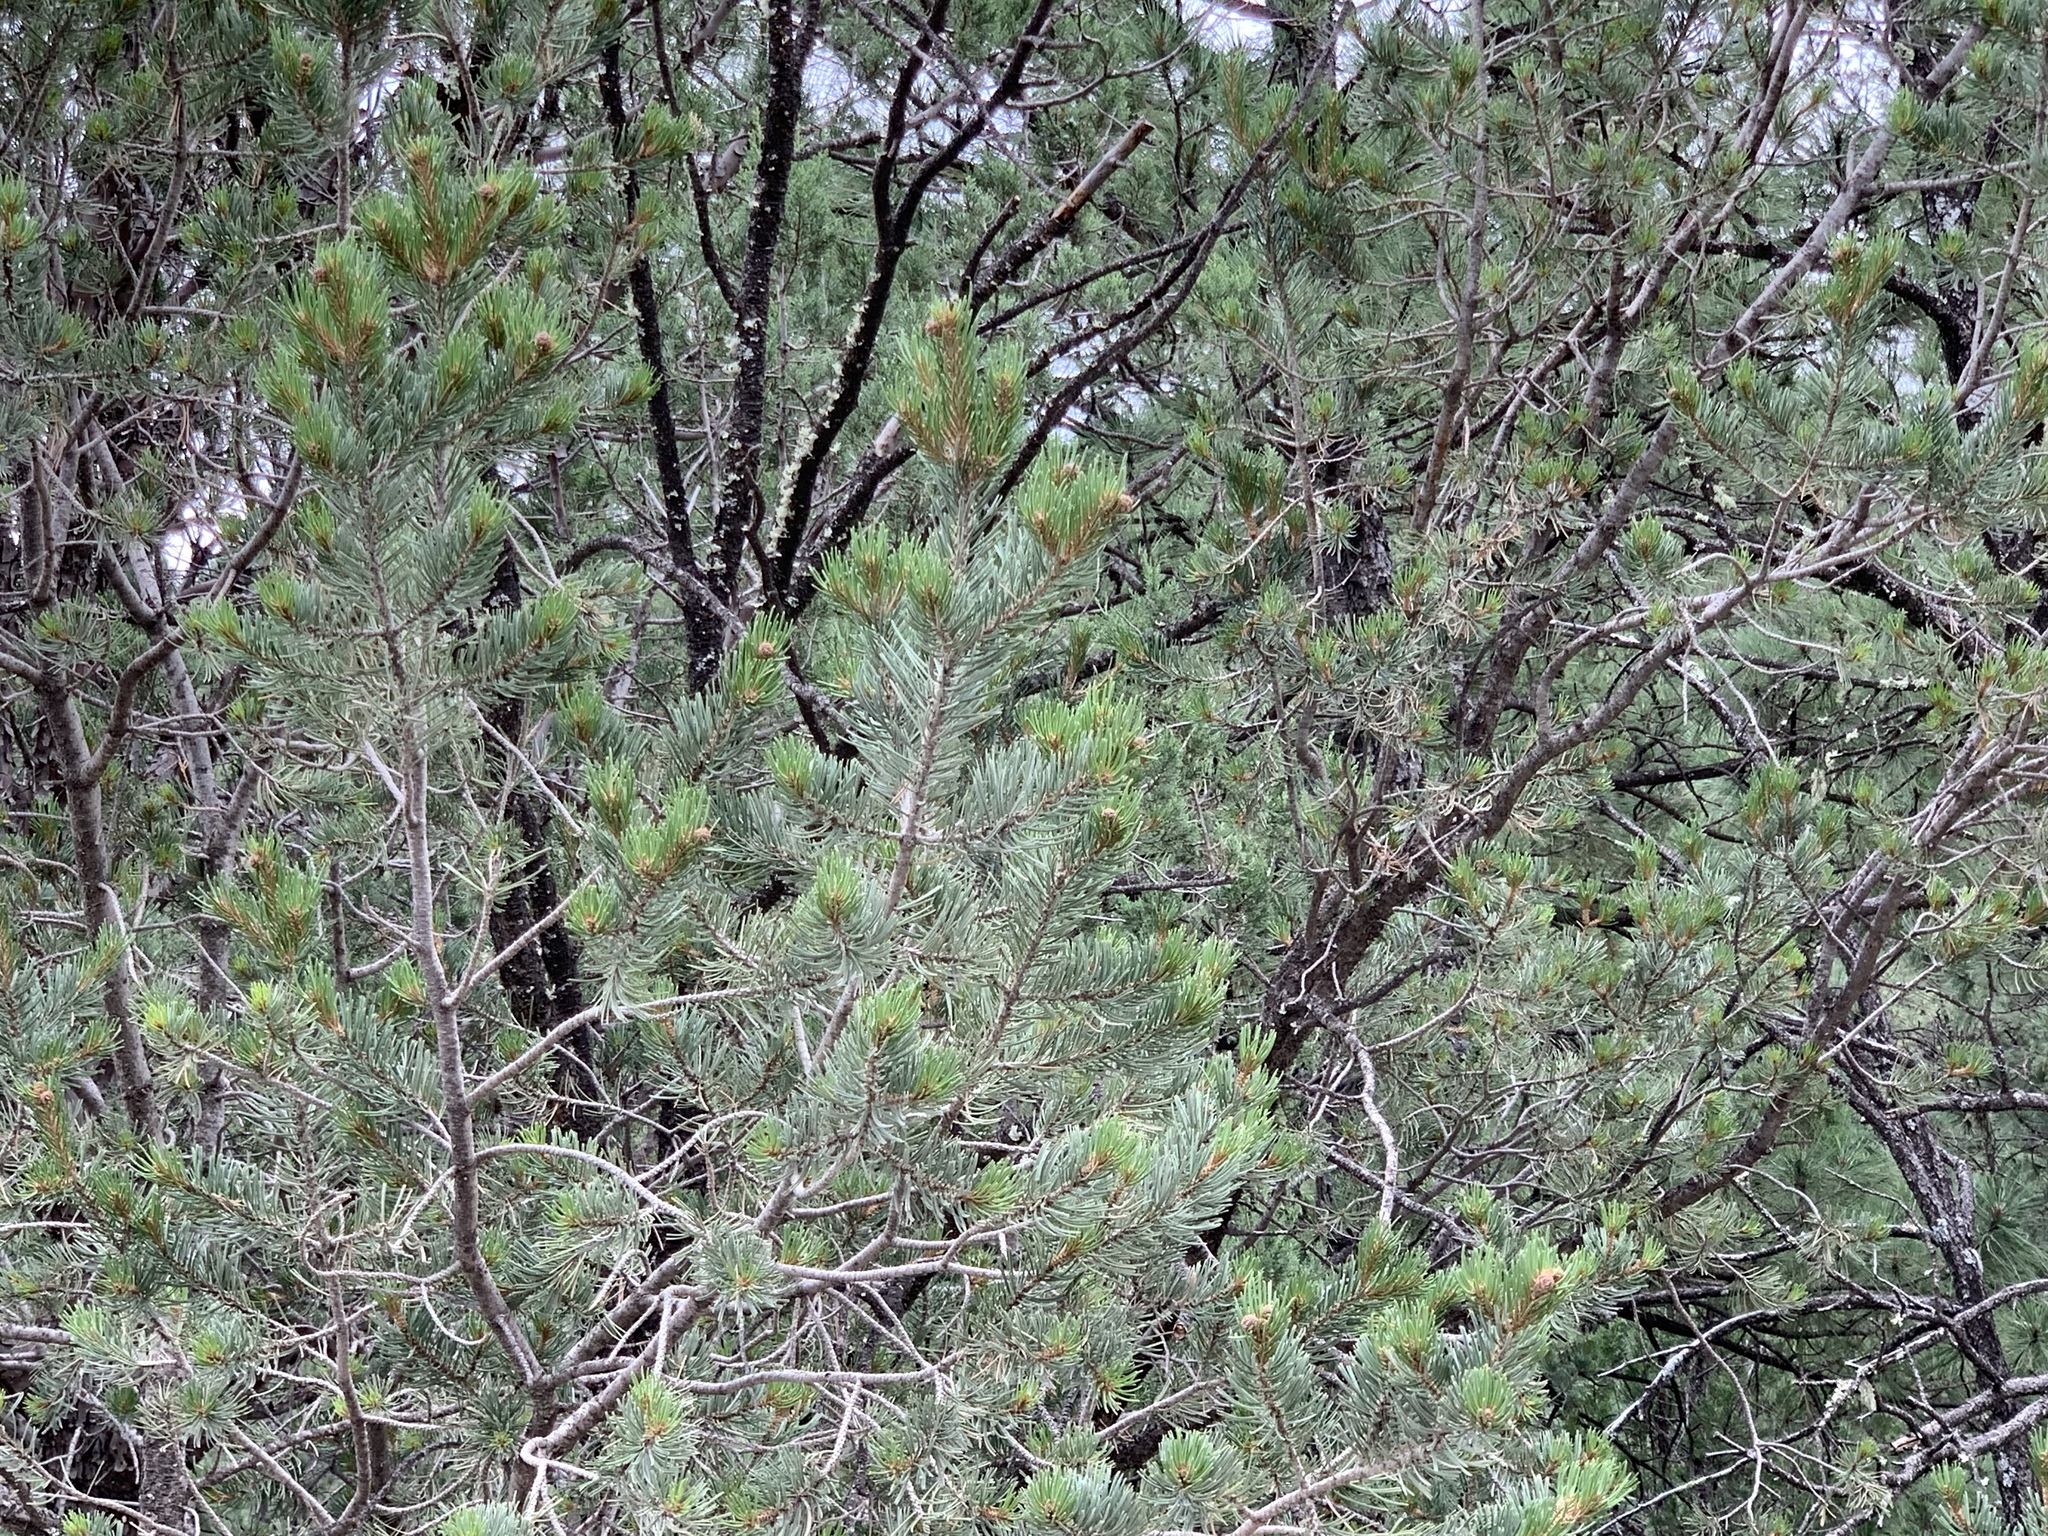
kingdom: Plantae
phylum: Tracheophyta
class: Pinopsida
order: Pinales
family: Pinaceae
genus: Pinus
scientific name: Pinus edulis
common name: Colorado pinyon
